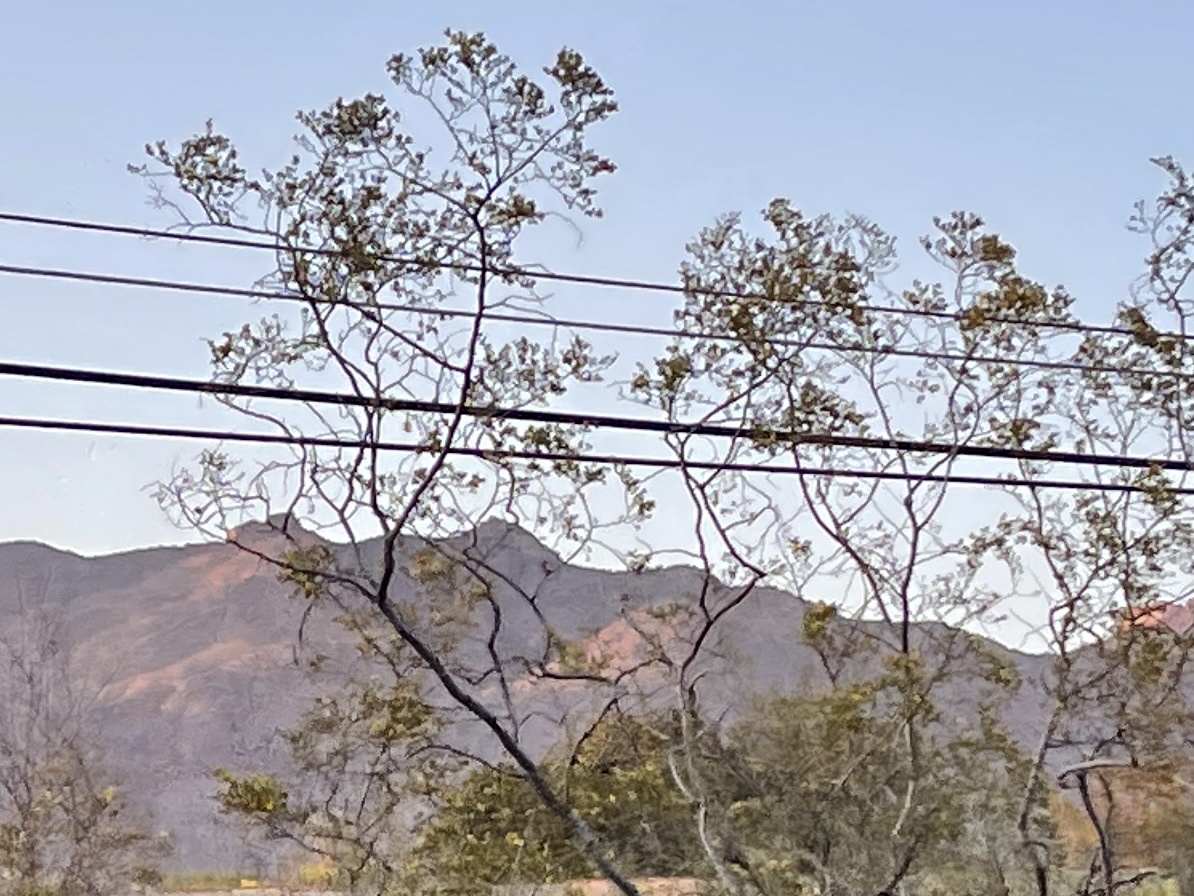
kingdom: Plantae
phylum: Tracheophyta
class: Magnoliopsida
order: Zygophyllales
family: Zygophyllaceae
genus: Larrea
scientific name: Larrea tridentata
